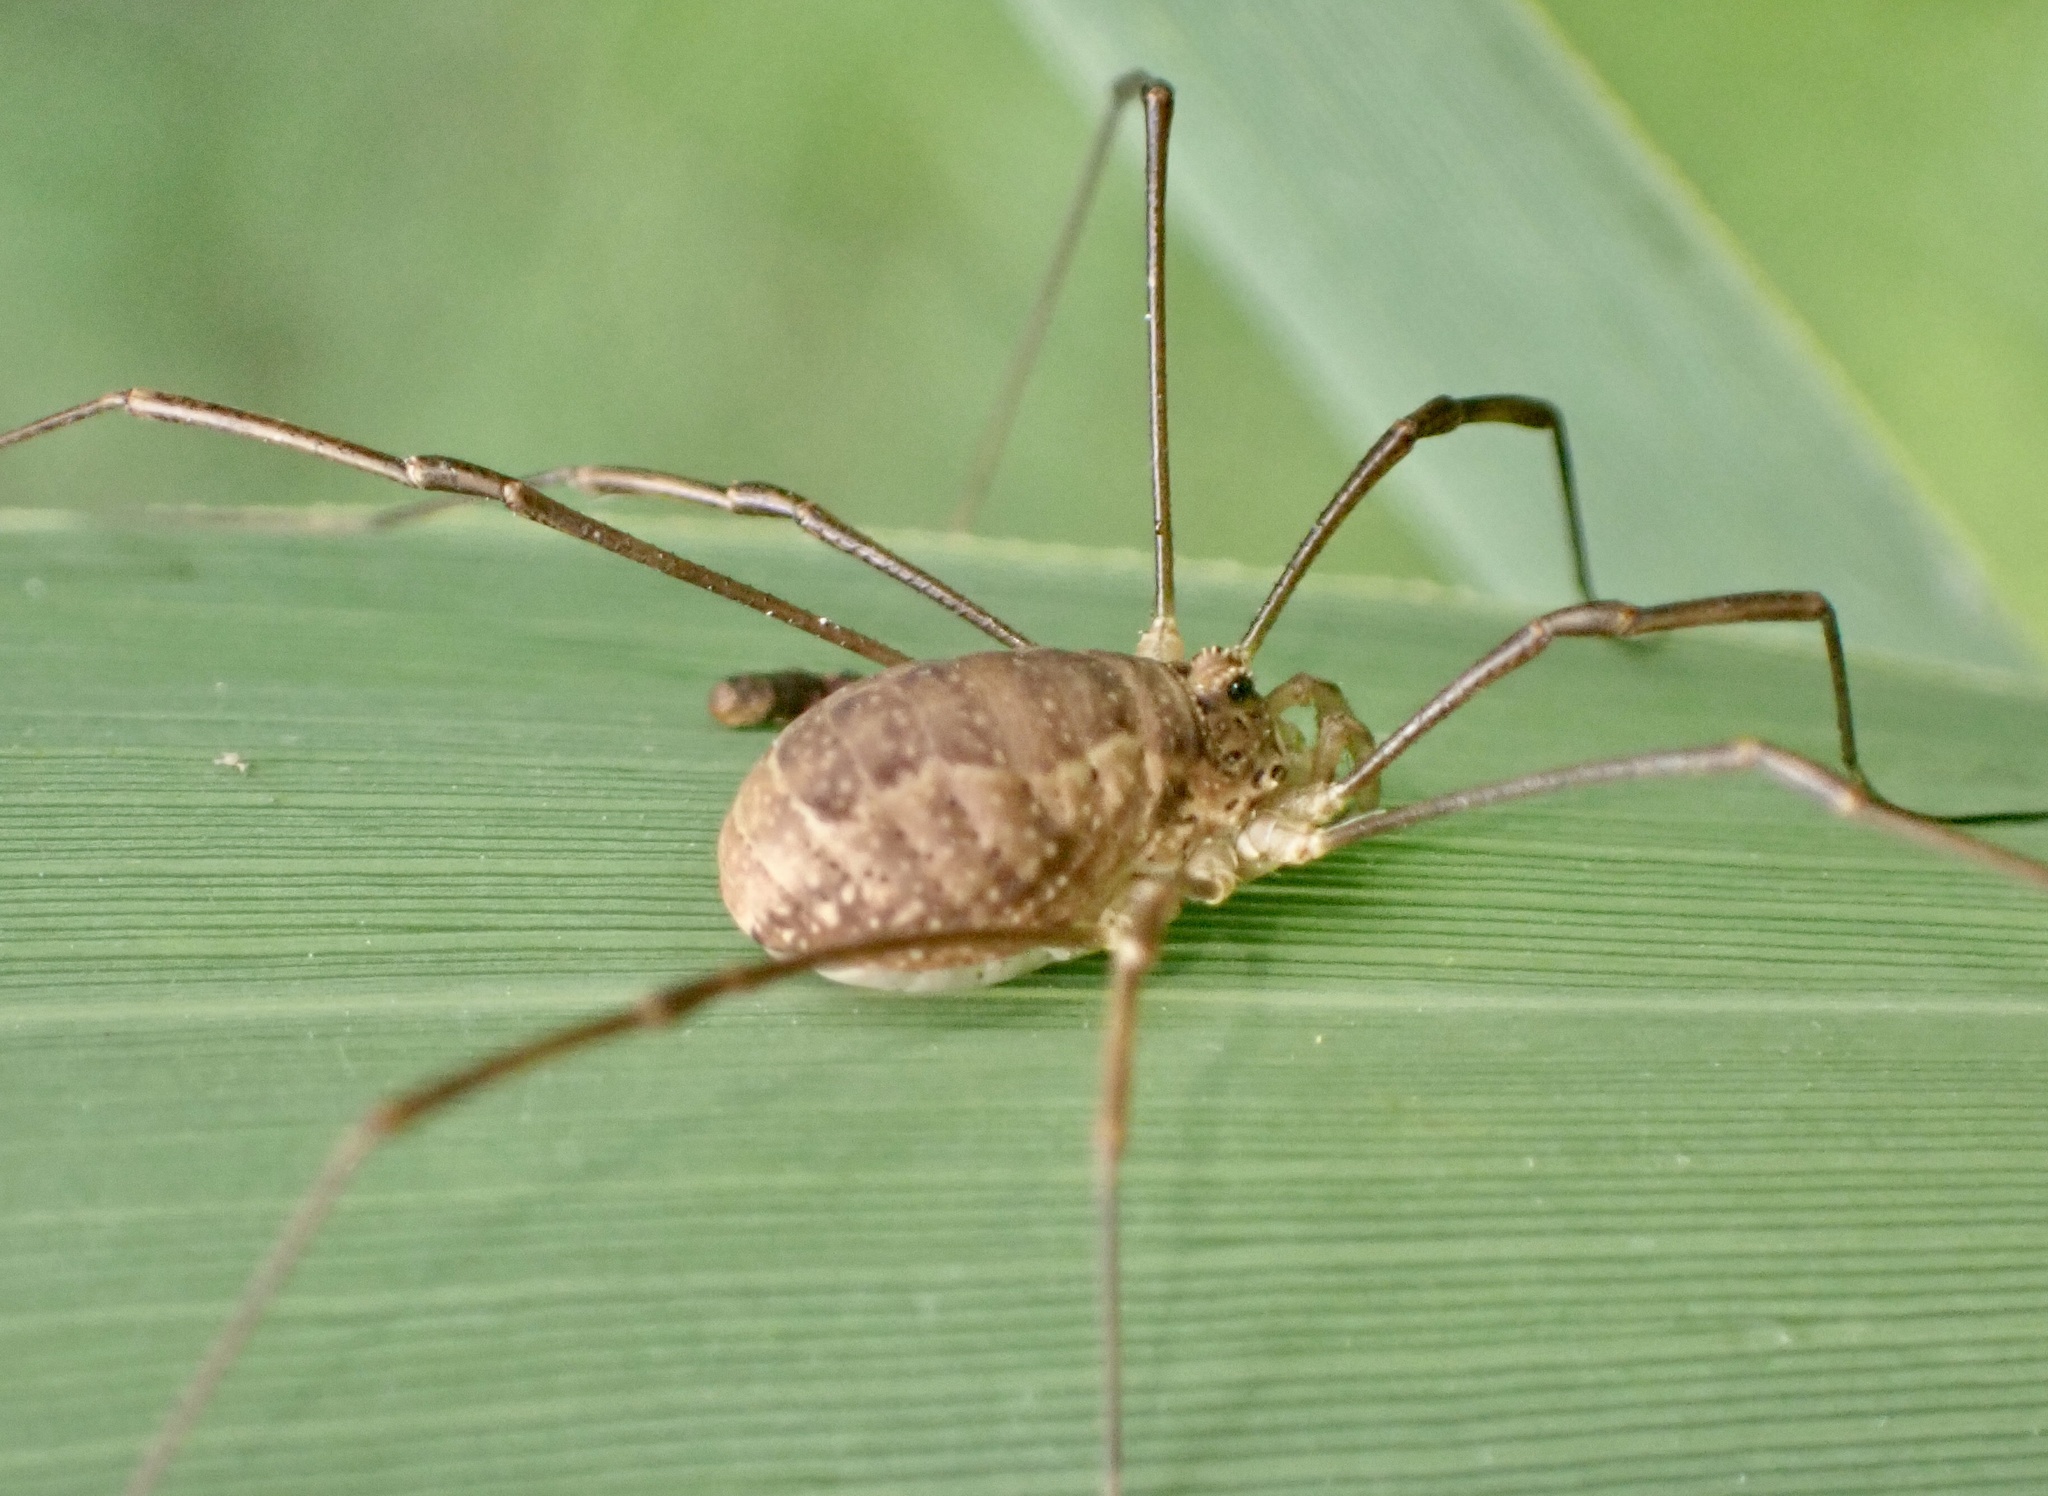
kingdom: Animalia
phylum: Arthropoda
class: Arachnida
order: Opiliones
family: Phalangiidae
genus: Rilaena
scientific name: Rilaena triangularis
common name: Spring harvestman
